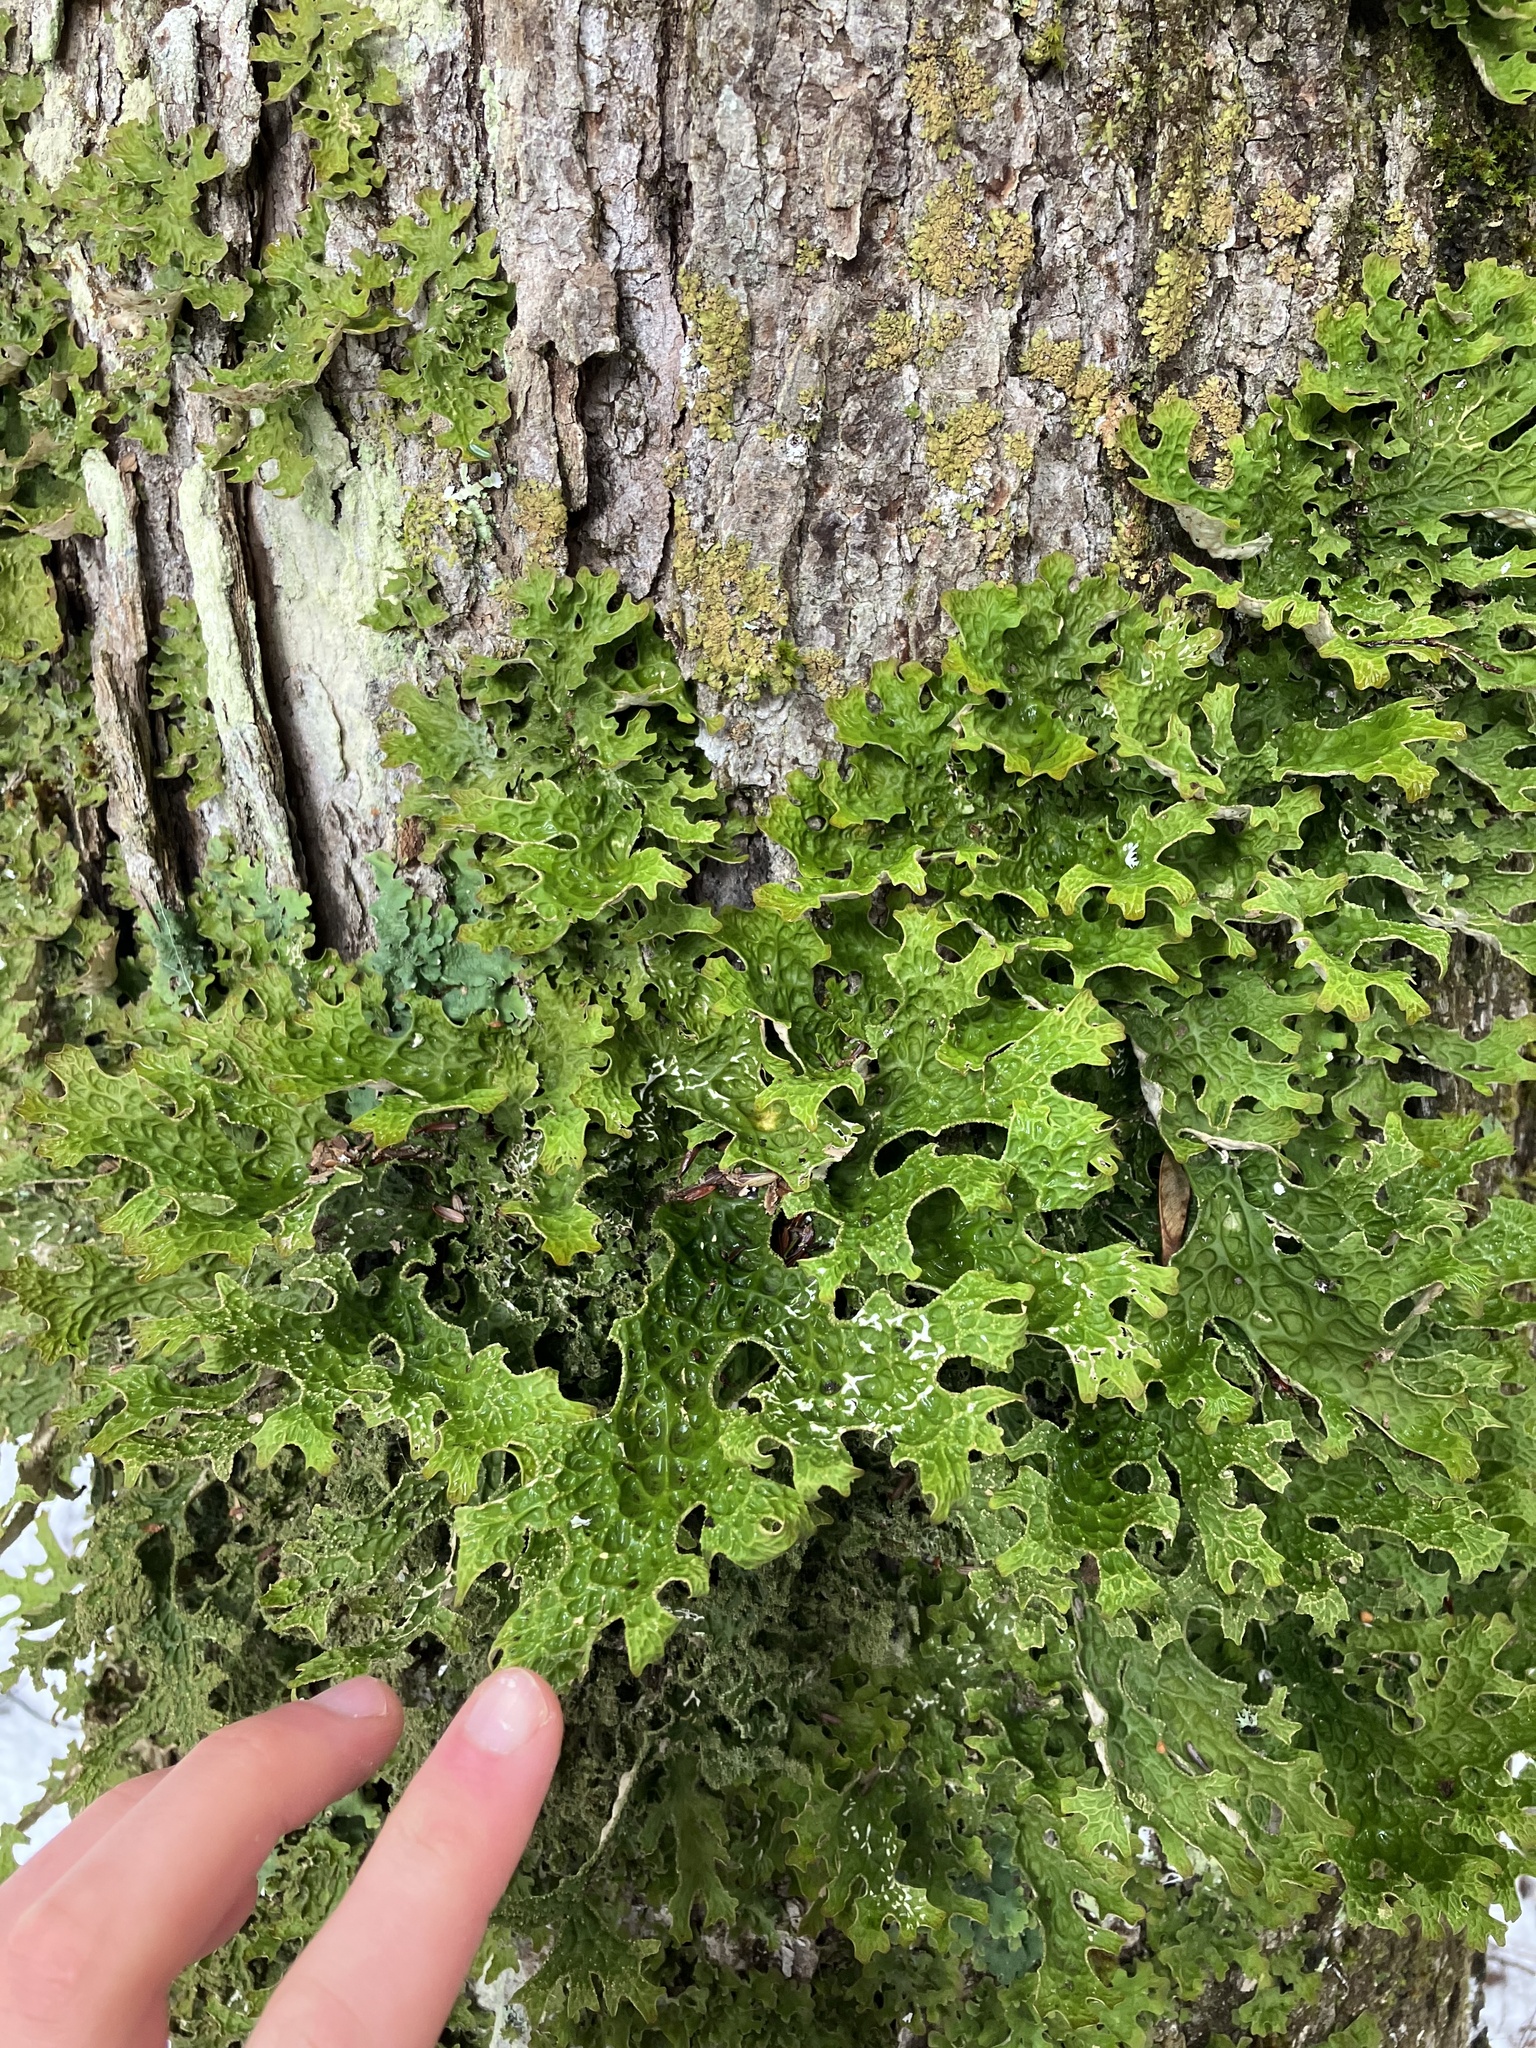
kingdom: Fungi
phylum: Ascomycota
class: Lecanoromycetes
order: Peltigerales
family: Lobariaceae
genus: Lobaria
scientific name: Lobaria pulmonaria
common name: Lungwort
